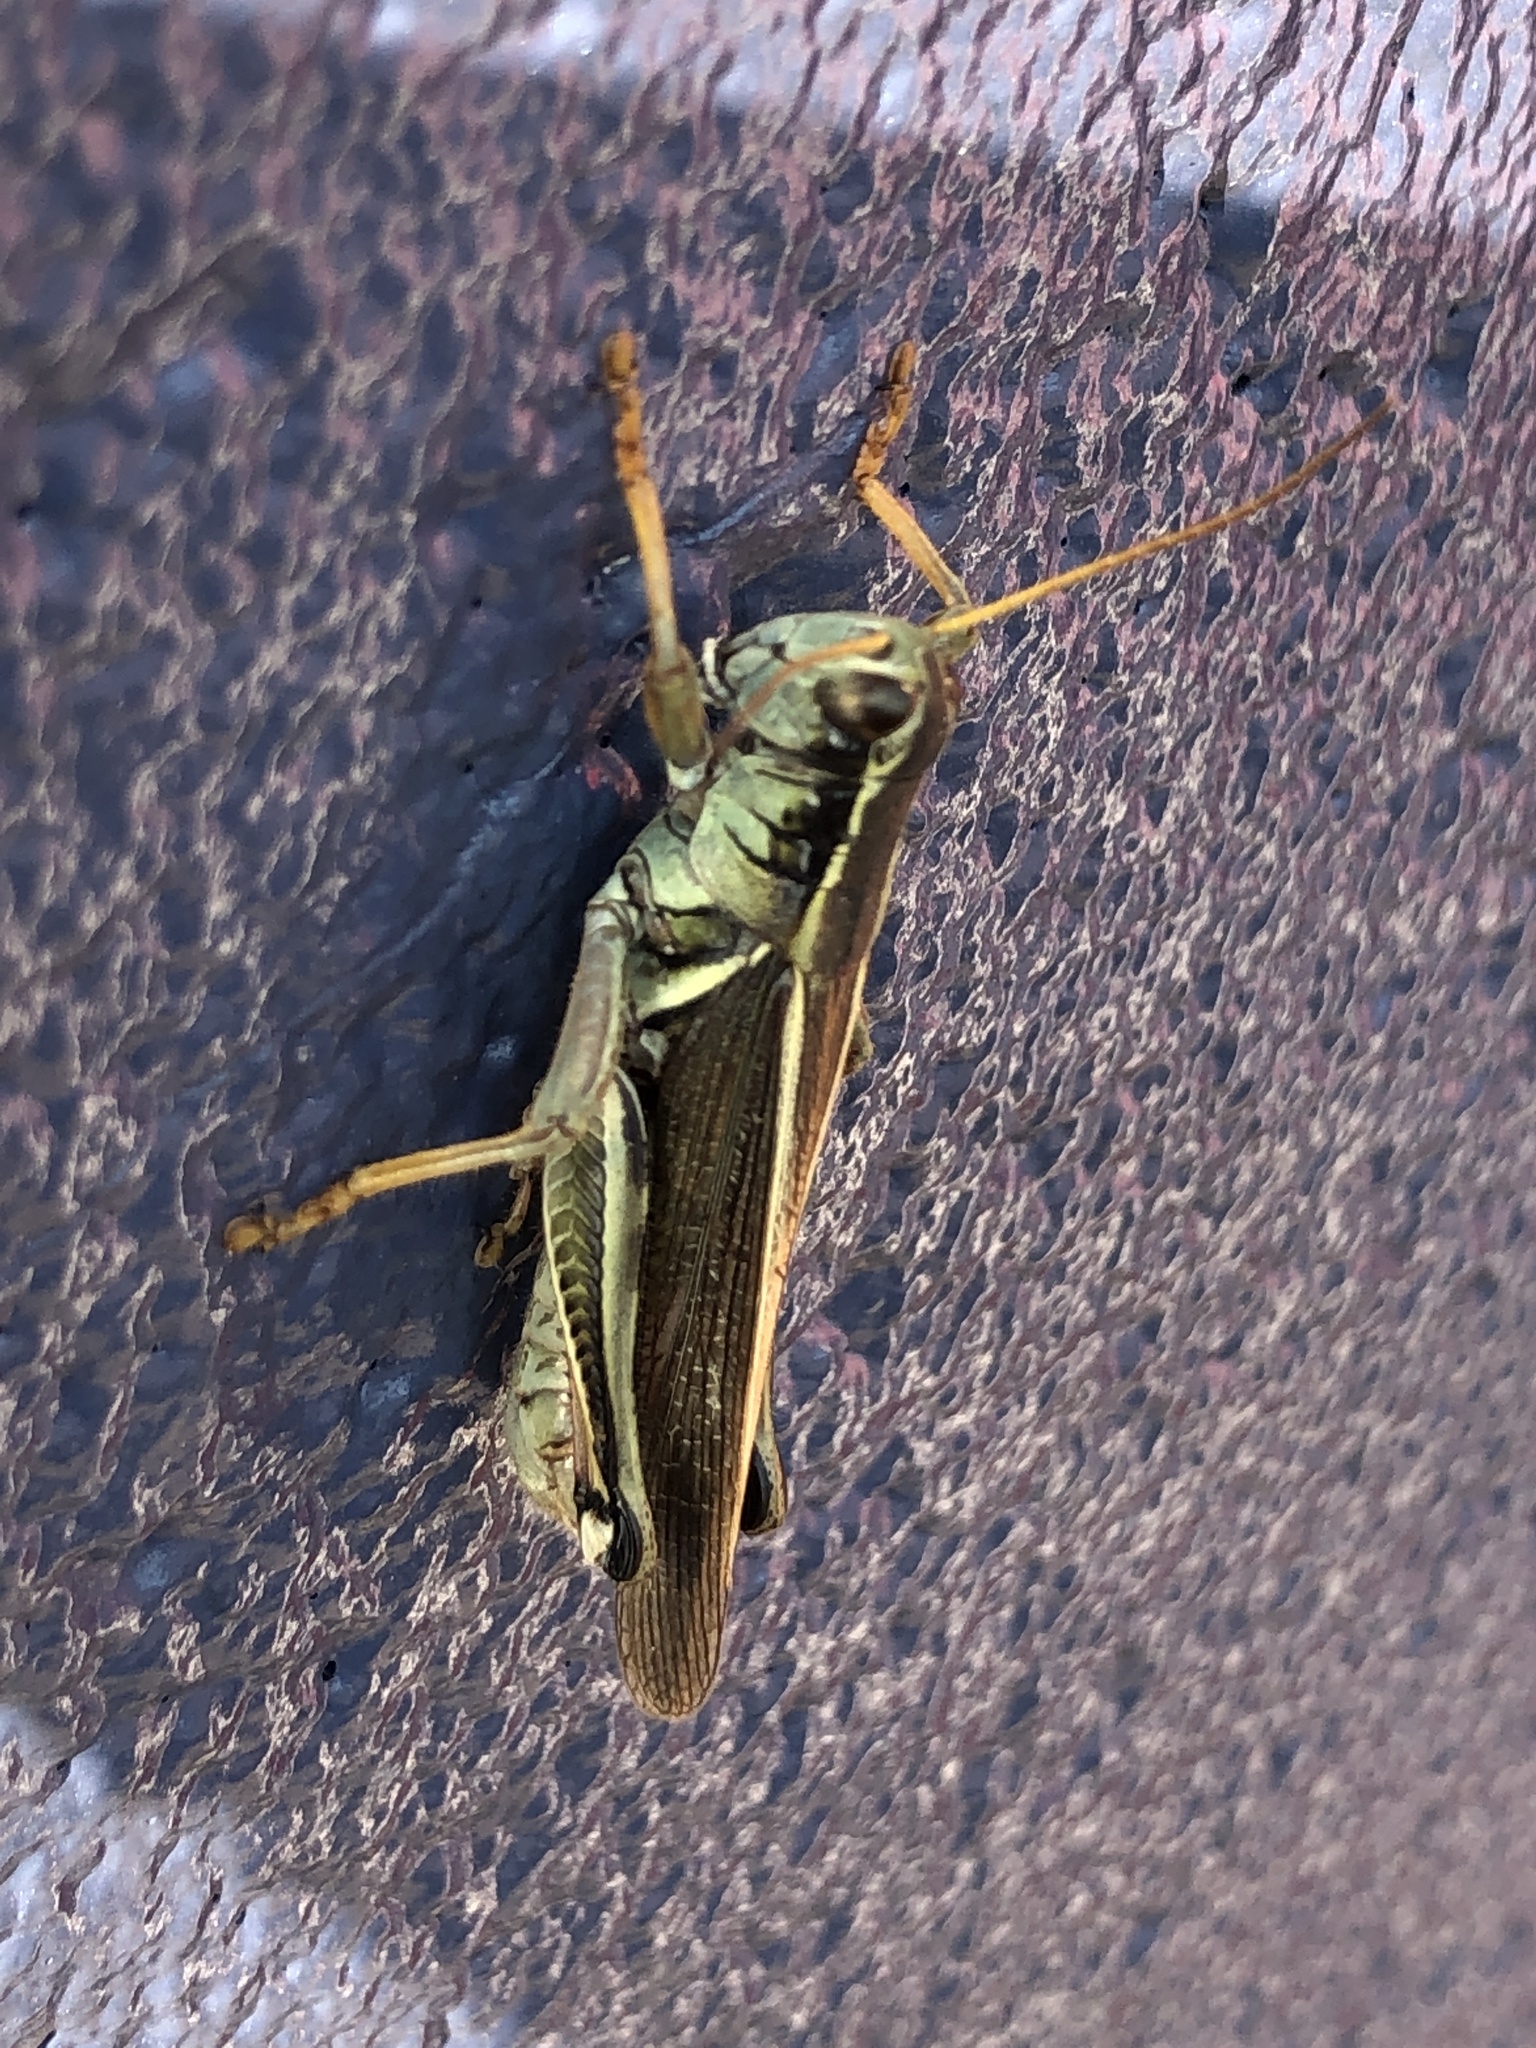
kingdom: Animalia
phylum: Arthropoda
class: Insecta
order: Orthoptera
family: Acrididae
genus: Melanoplus
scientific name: Melanoplus bivittatus
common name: Two-striped grasshopper
